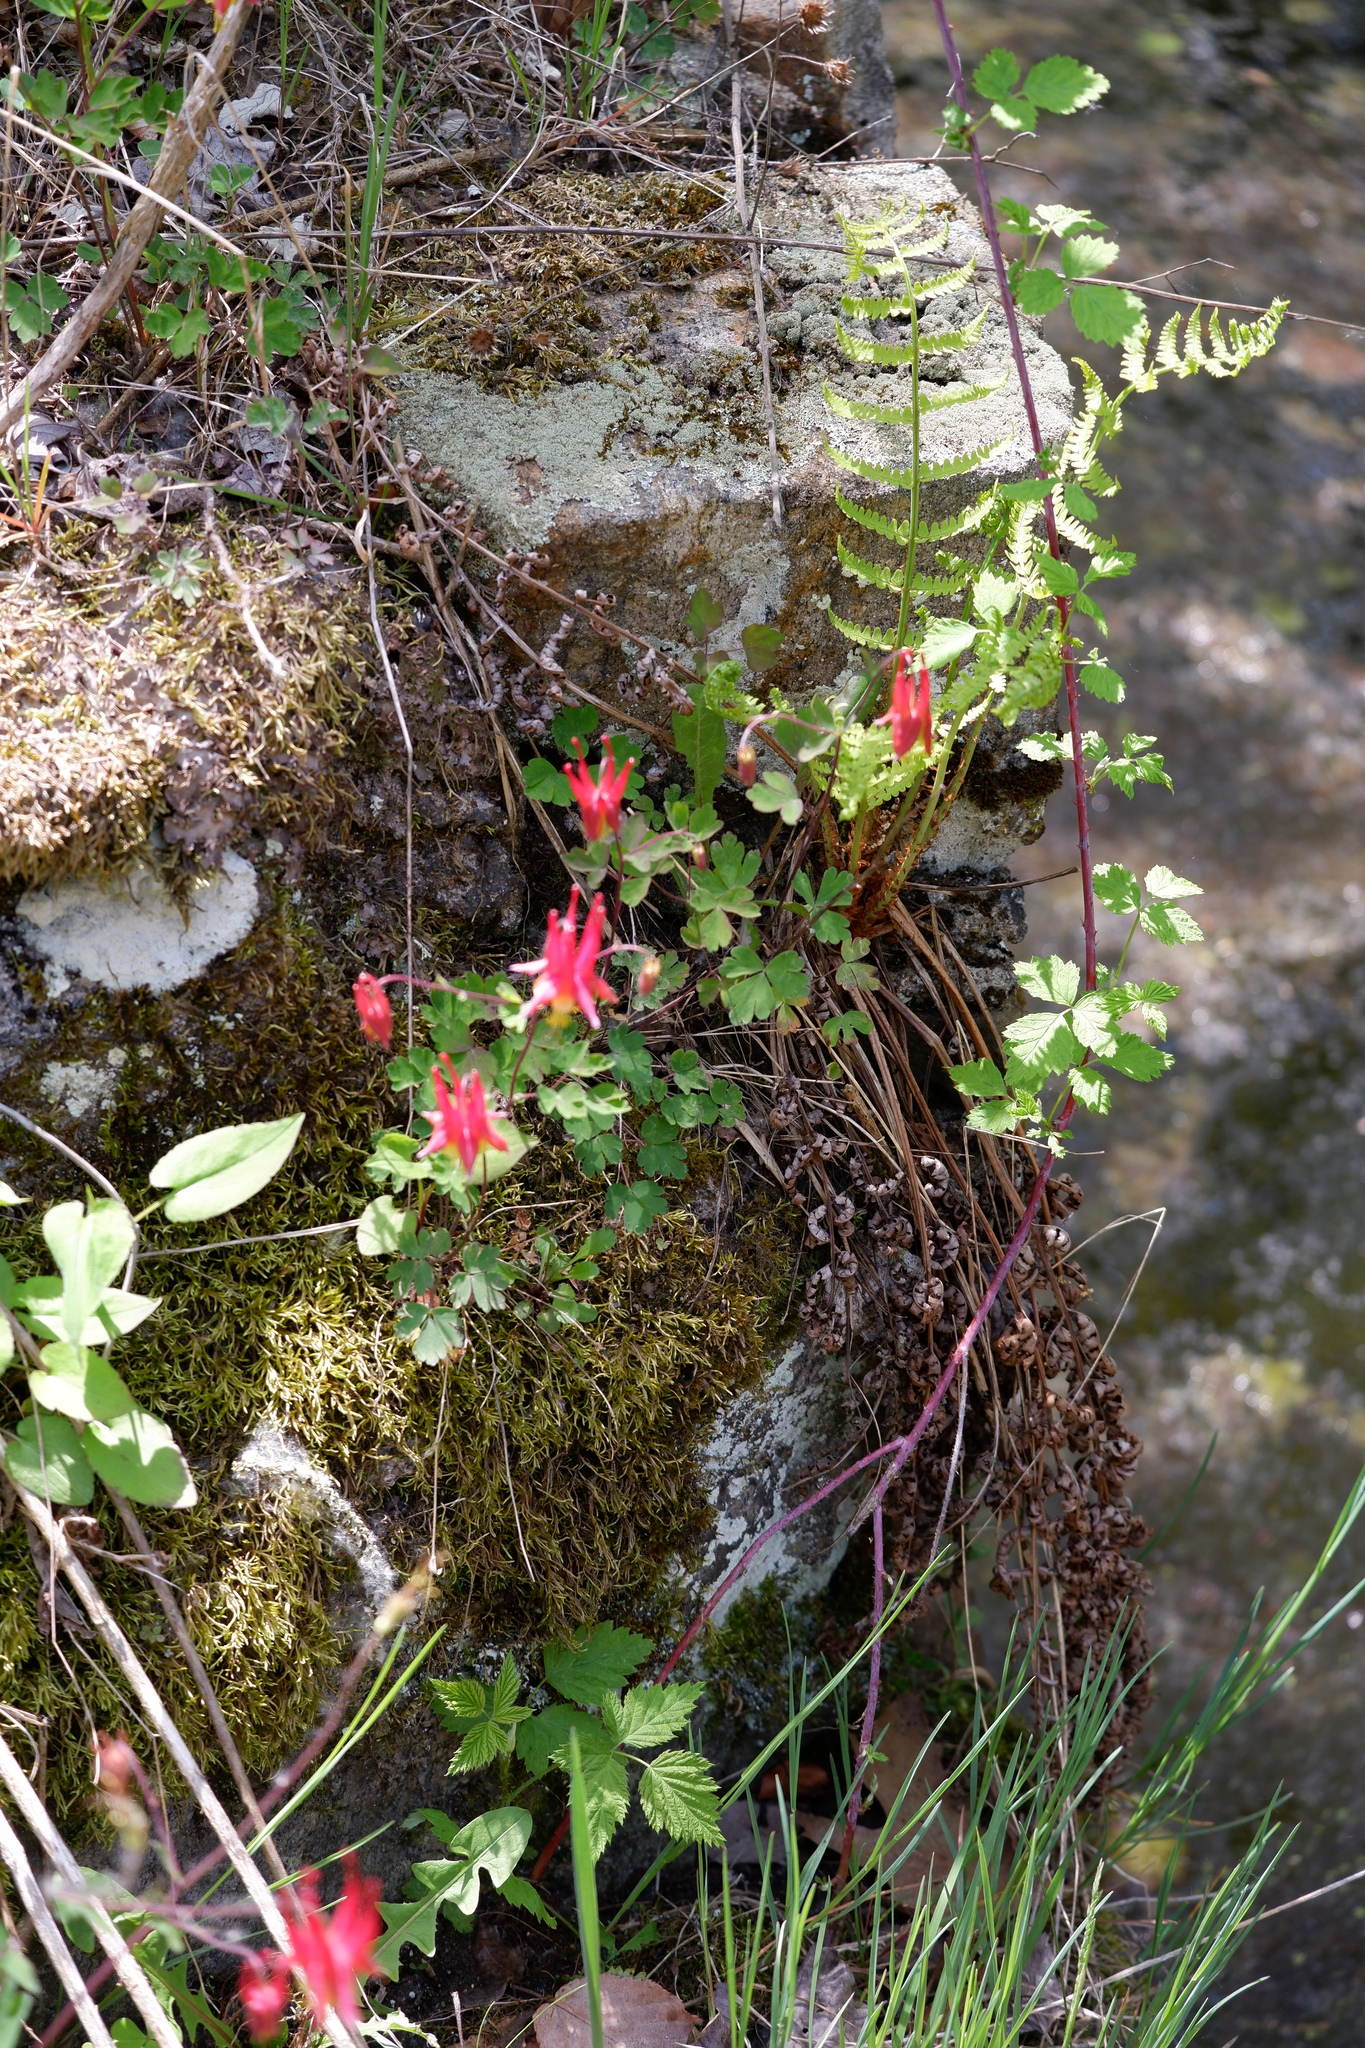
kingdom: Plantae
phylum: Tracheophyta
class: Magnoliopsida
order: Ranunculales
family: Ranunculaceae
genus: Aquilegia
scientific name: Aquilegia canadensis
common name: American columbine
